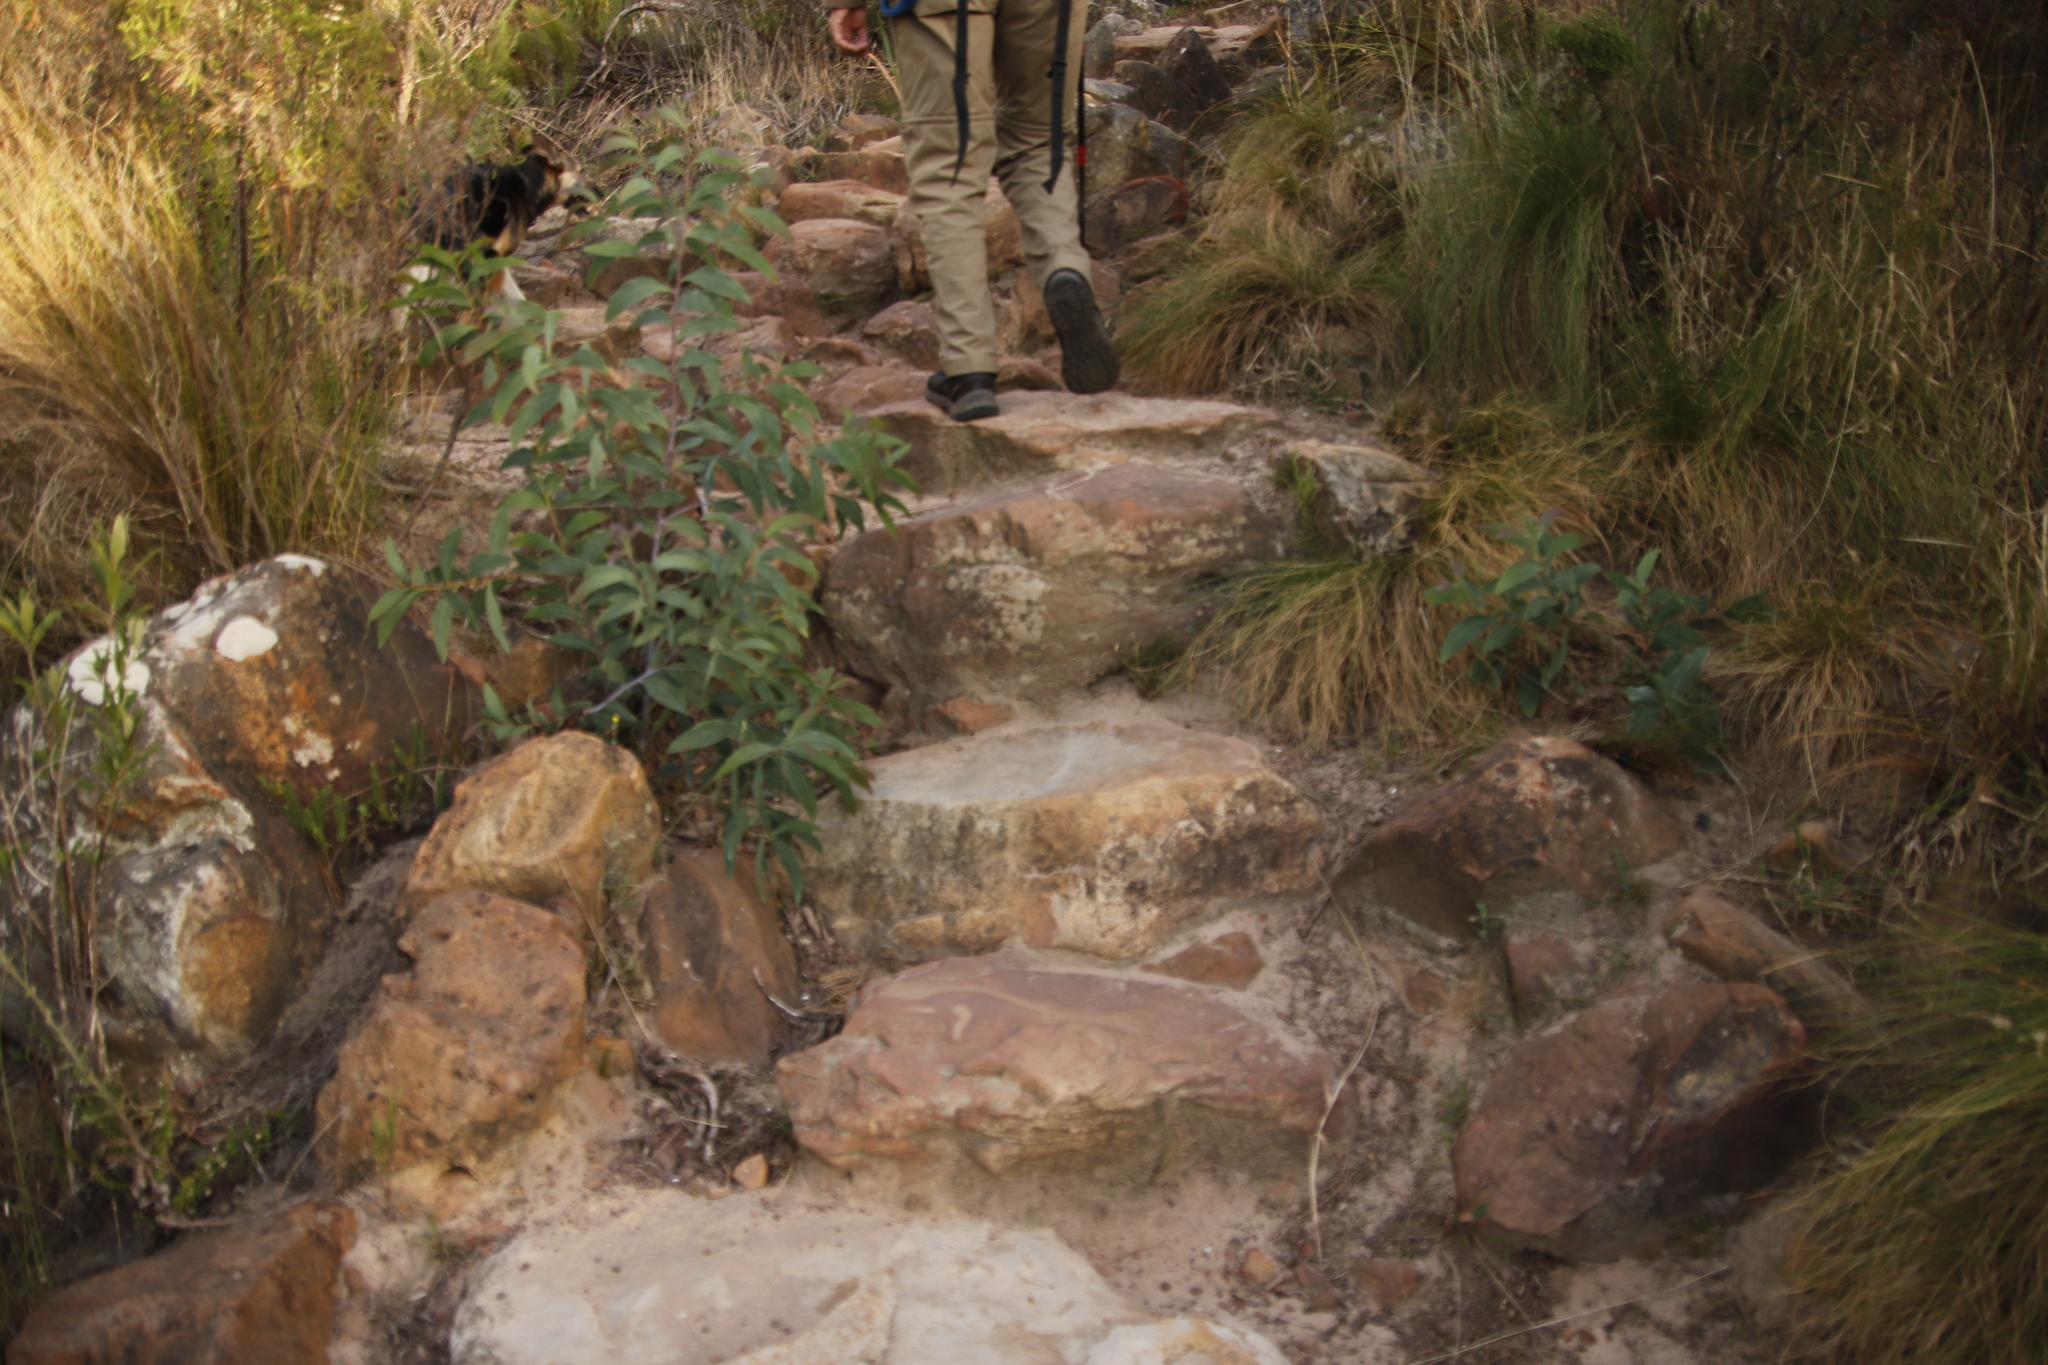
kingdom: Plantae
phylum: Tracheophyta
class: Magnoliopsida
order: Fabales
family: Fabaceae
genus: Acacia
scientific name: Acacia falciformis
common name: Tanning wattle
